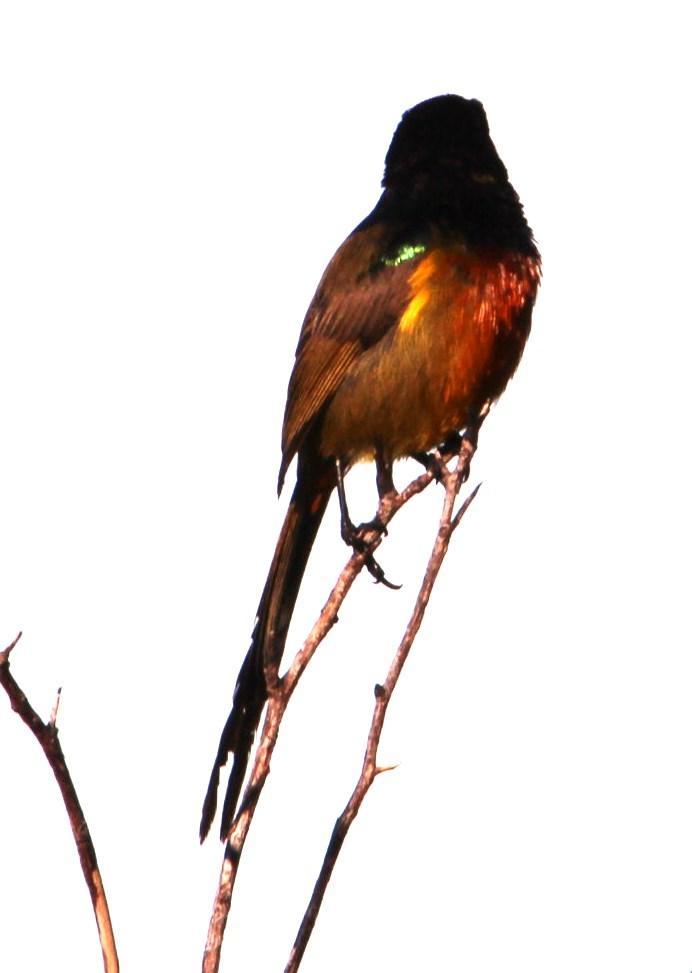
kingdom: Animalia
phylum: Chordata
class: Aves
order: Passeriformes
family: Nectariniidae
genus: Anthobaphes
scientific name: Anthobaphes violacea
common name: Orange-breasted sunbird
